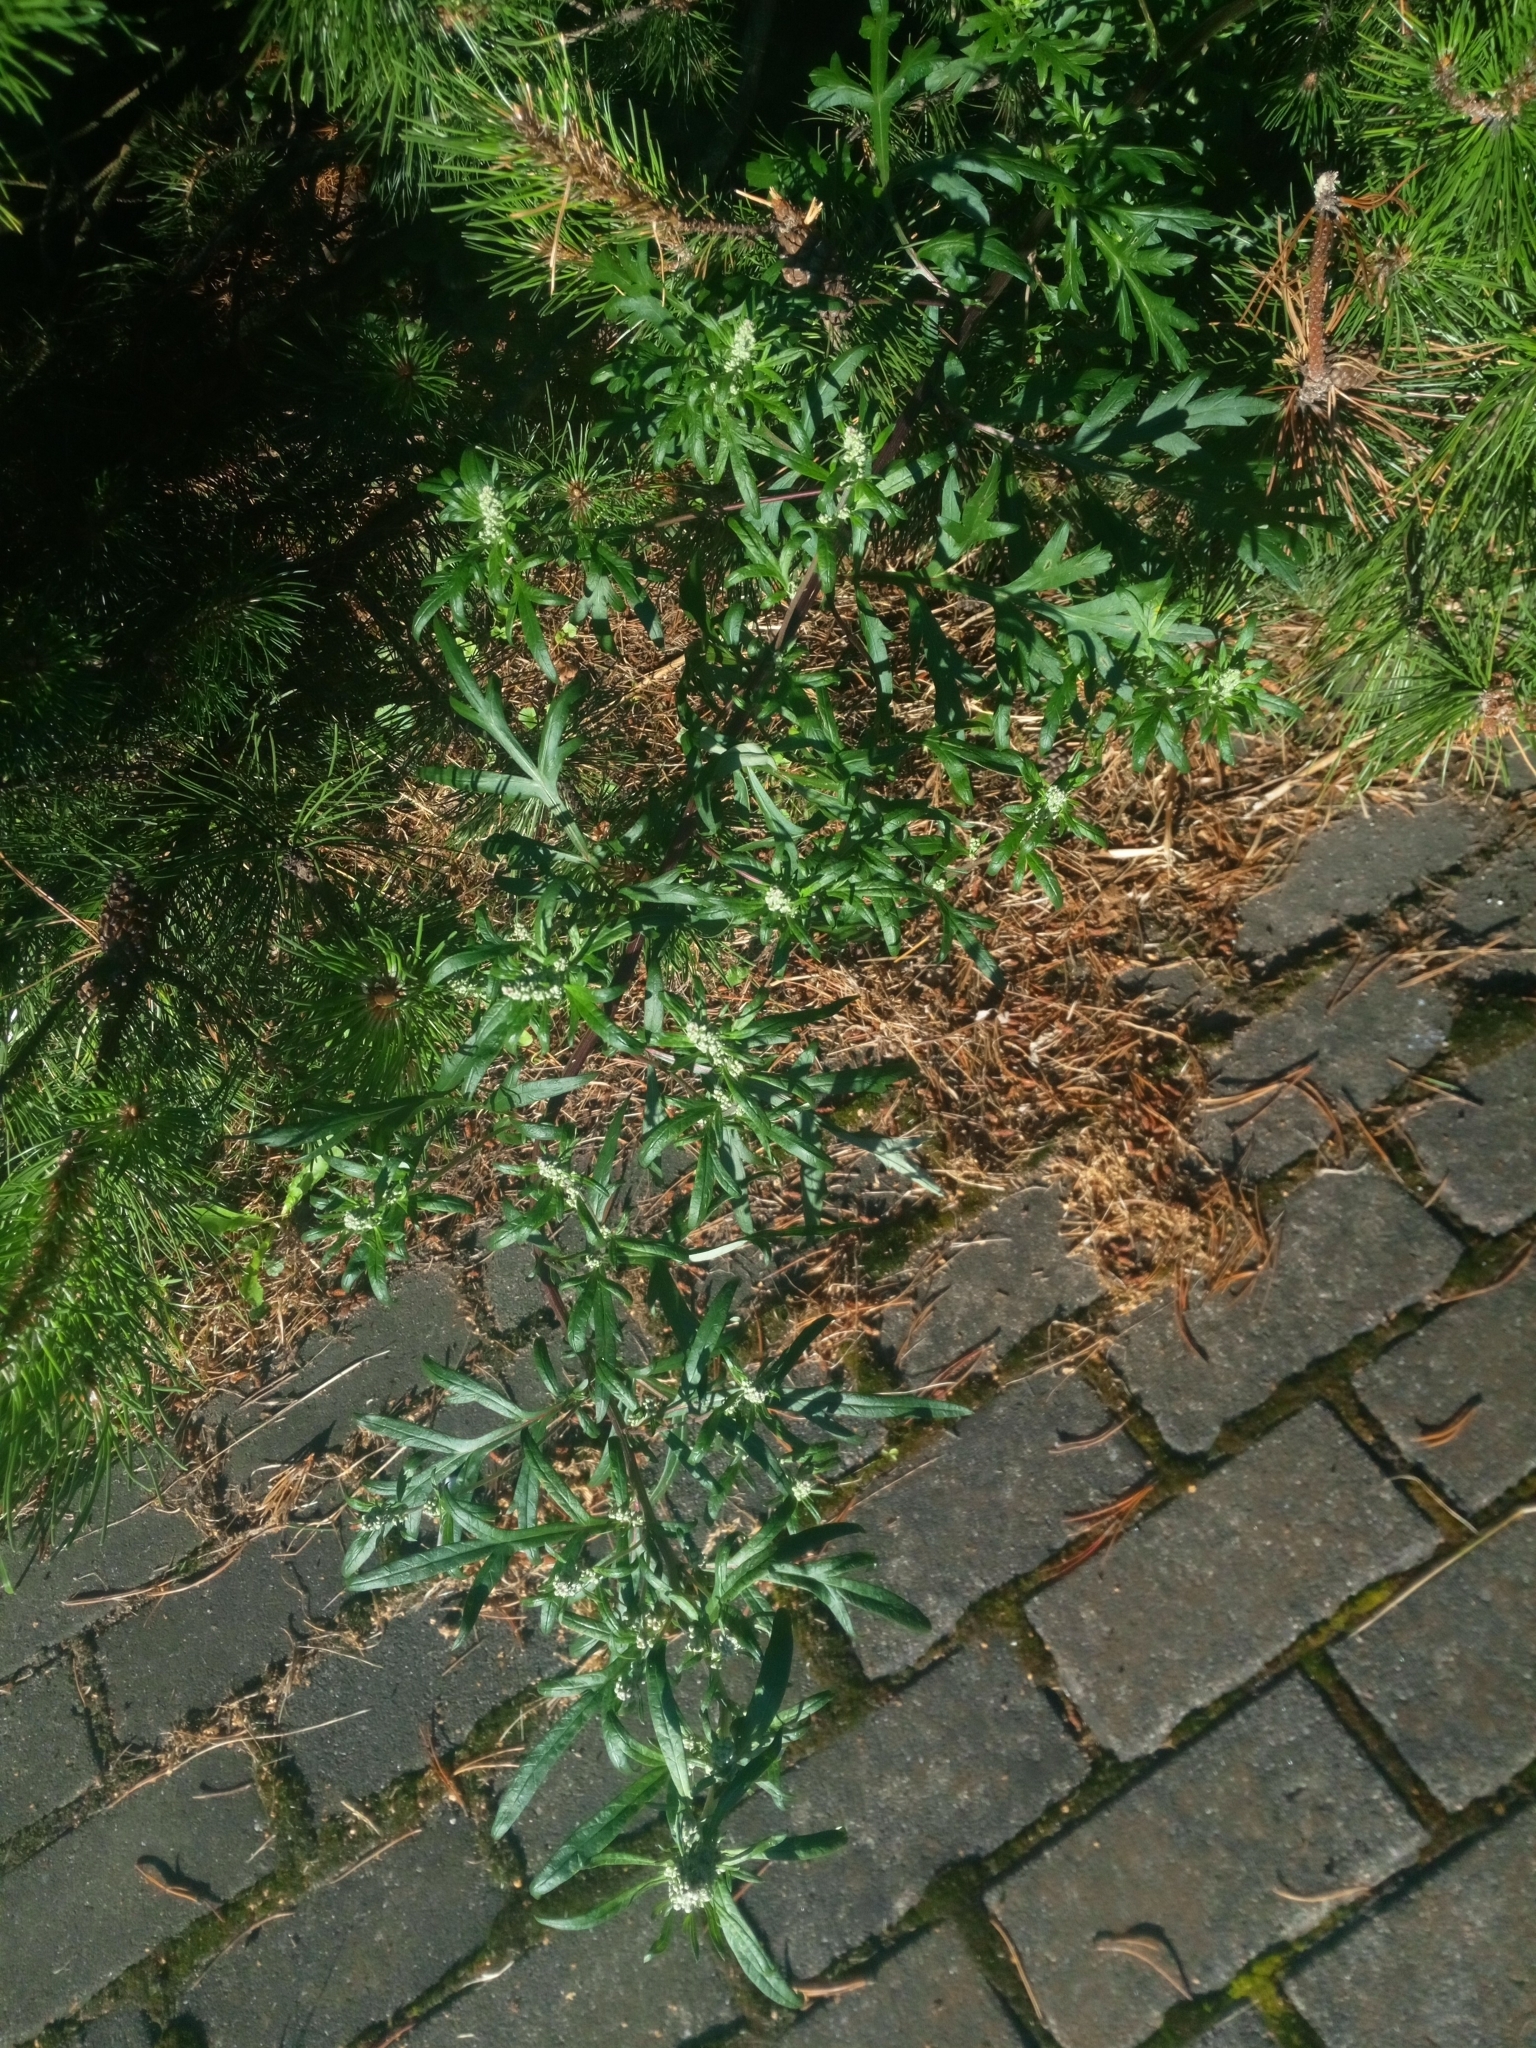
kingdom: Plantae
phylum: Tracheophyta
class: Magnoliopsida
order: Asterales
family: Asteraceae
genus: Artemisia
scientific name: Artemisia vulgaris
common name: Mugwort
